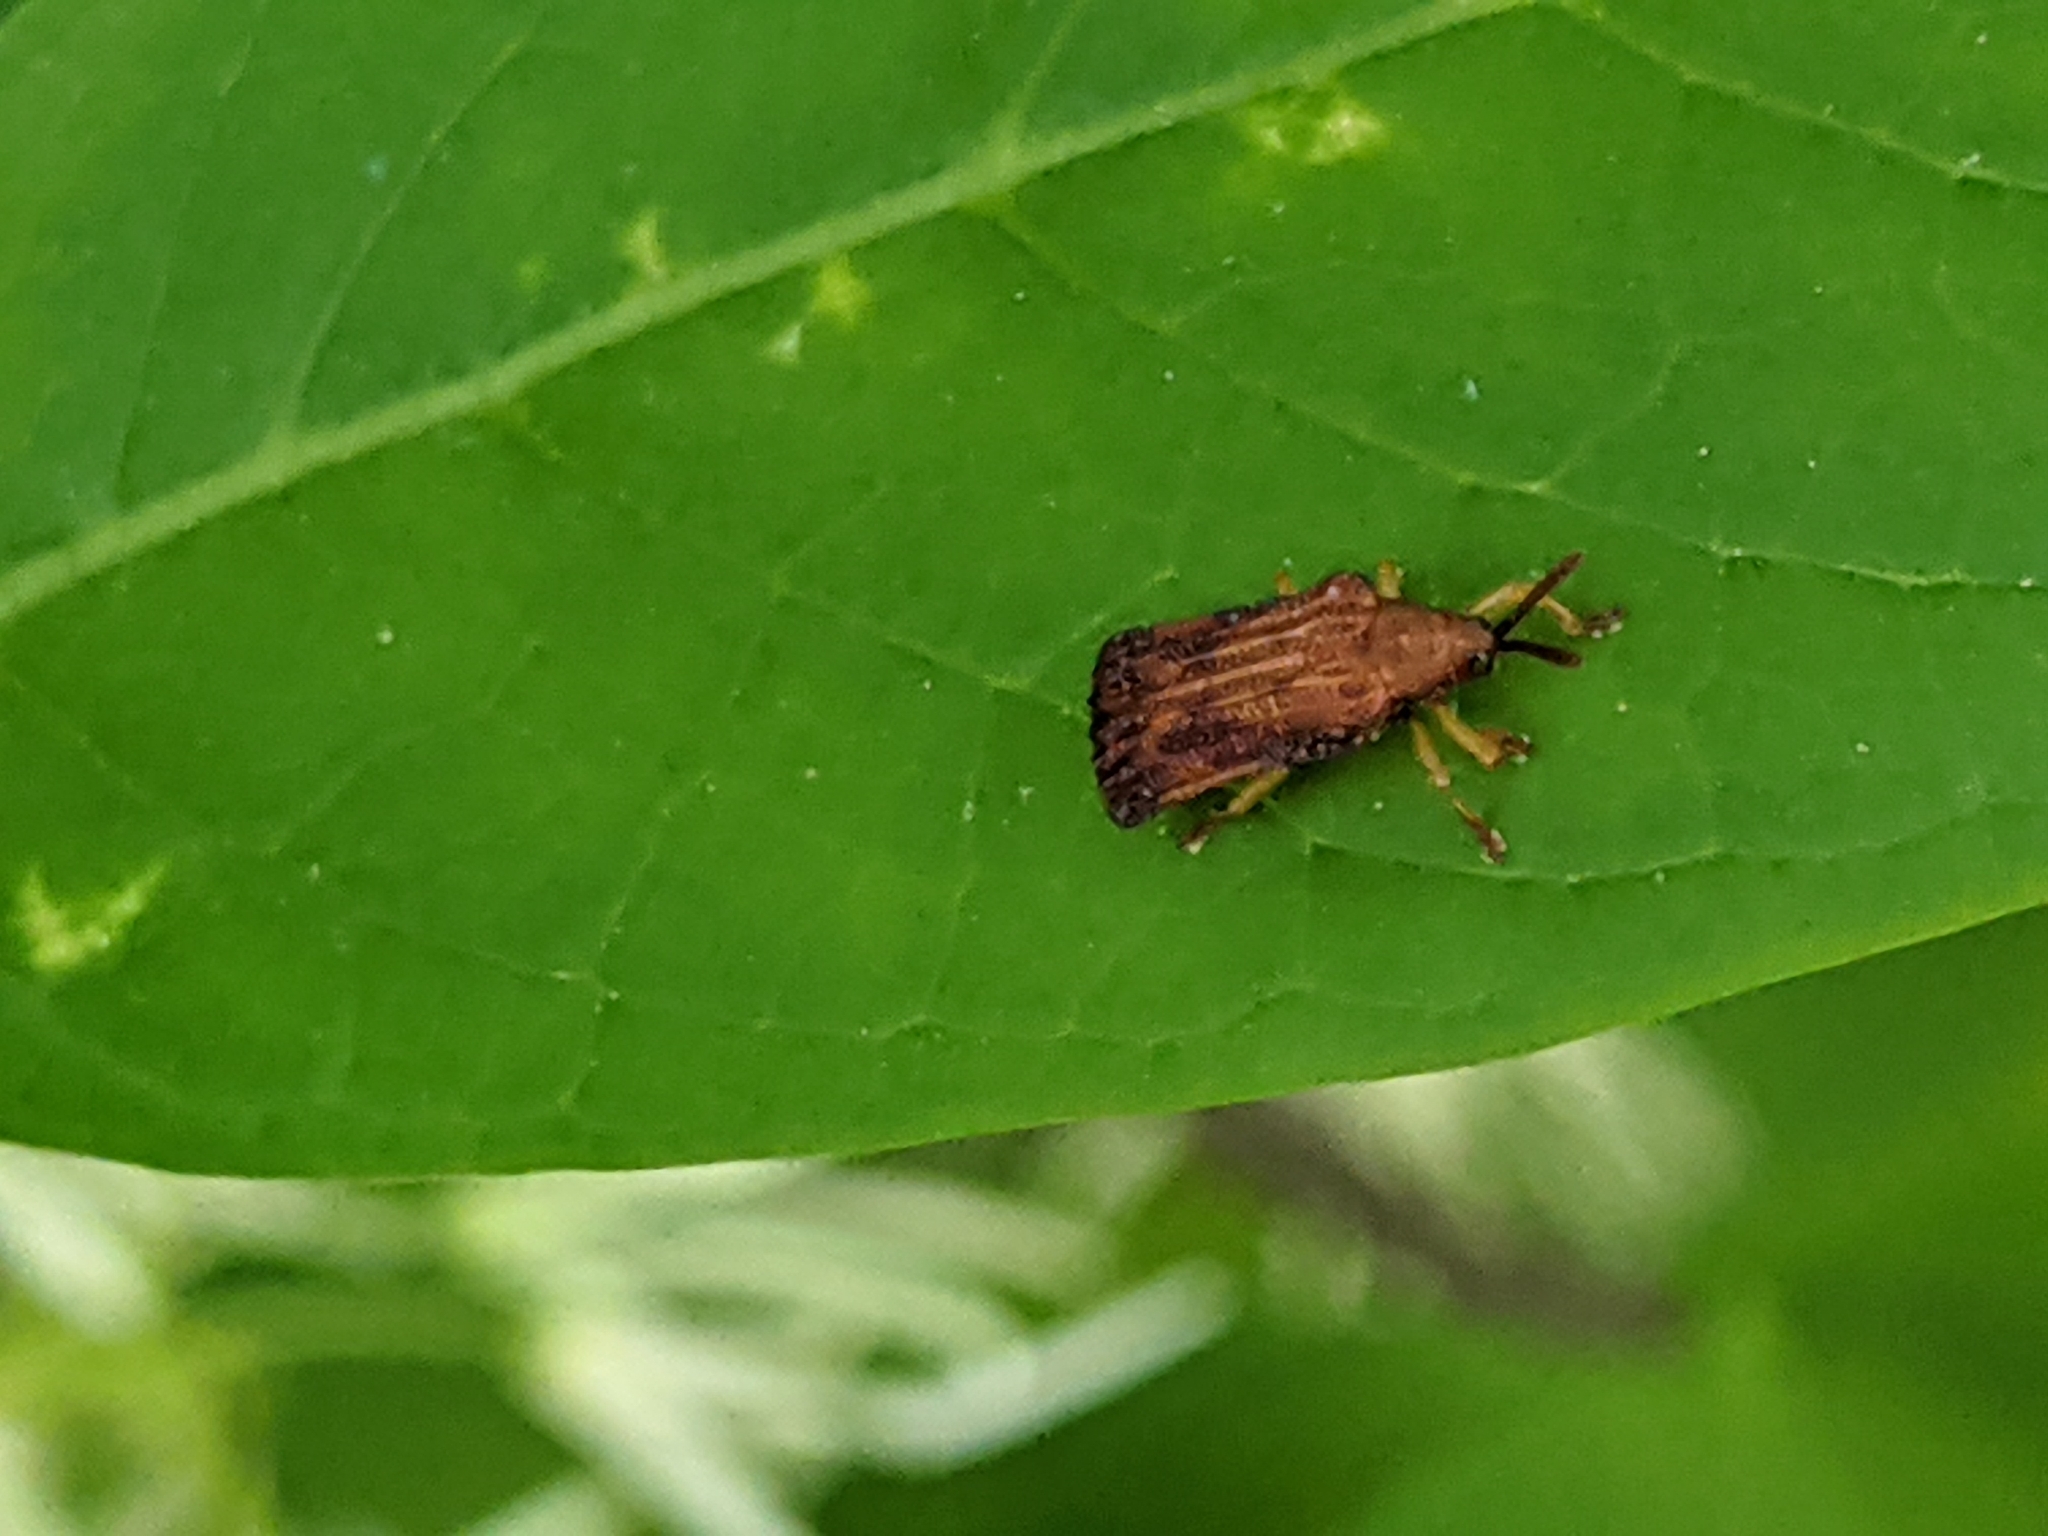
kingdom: Animalia
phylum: Arthropoda
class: Insecta
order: Coleoptera
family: Chrysomelidae
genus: Baliosus
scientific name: Baliosus nervosus
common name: Basswood leaf miner
